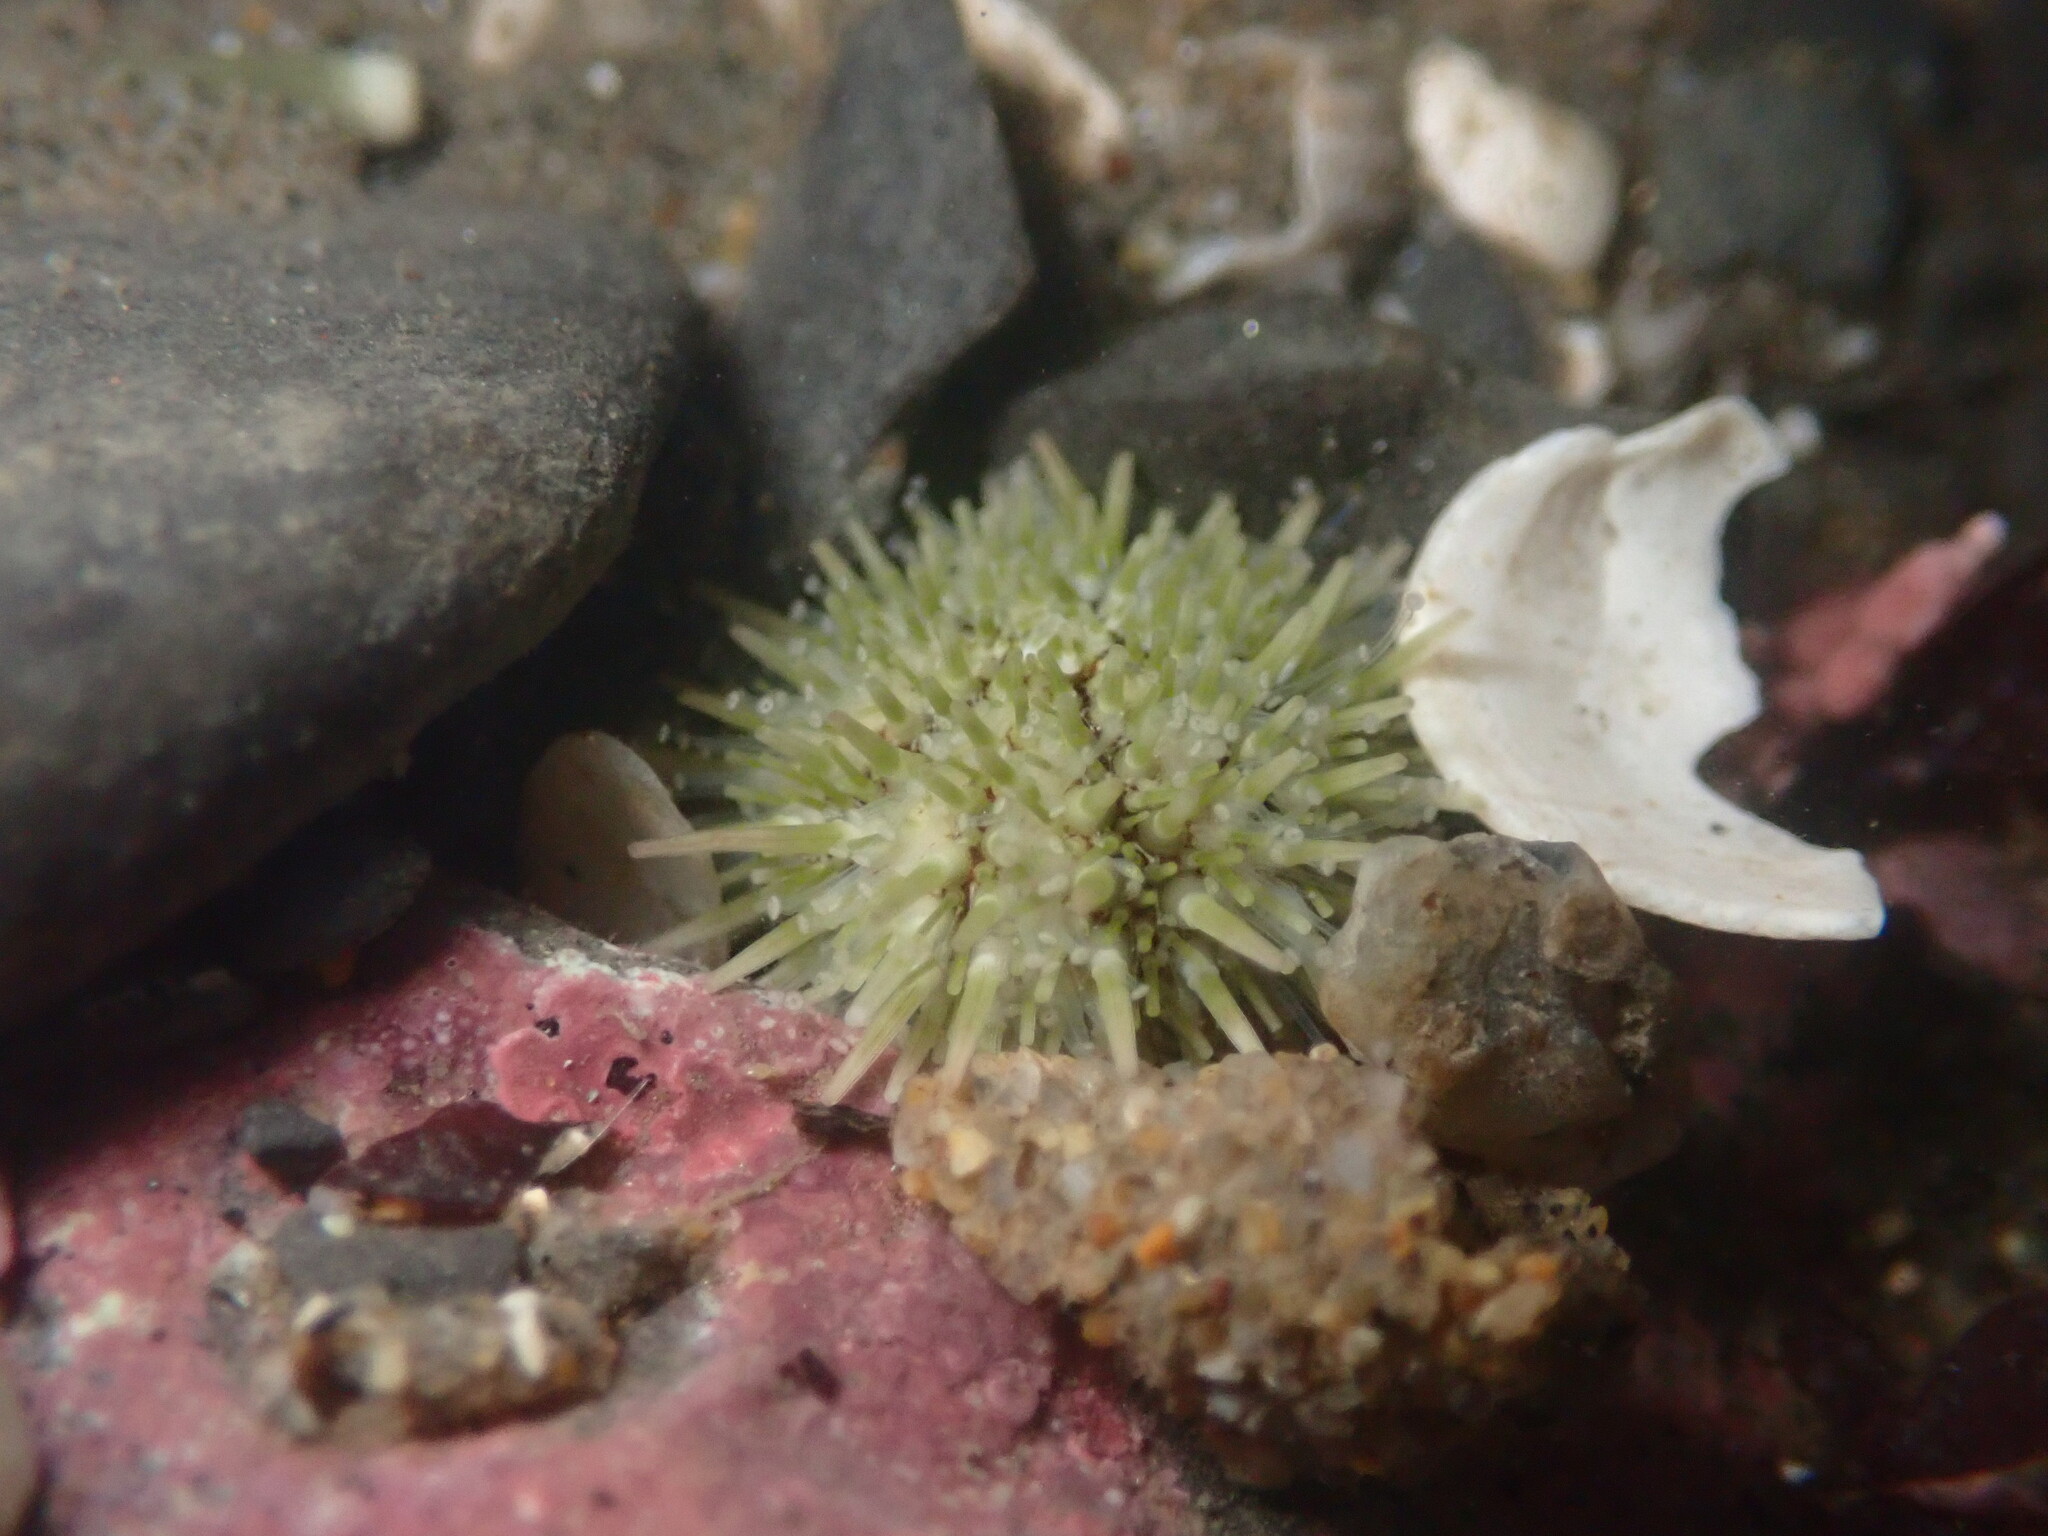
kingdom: Animalia
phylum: Echinodermata
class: Echinoidea
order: Camarodonta
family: Strongylocentrotidae
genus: Strongylocentrotus
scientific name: Strongylocentrotus purpuratus
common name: Purple sea urchin
